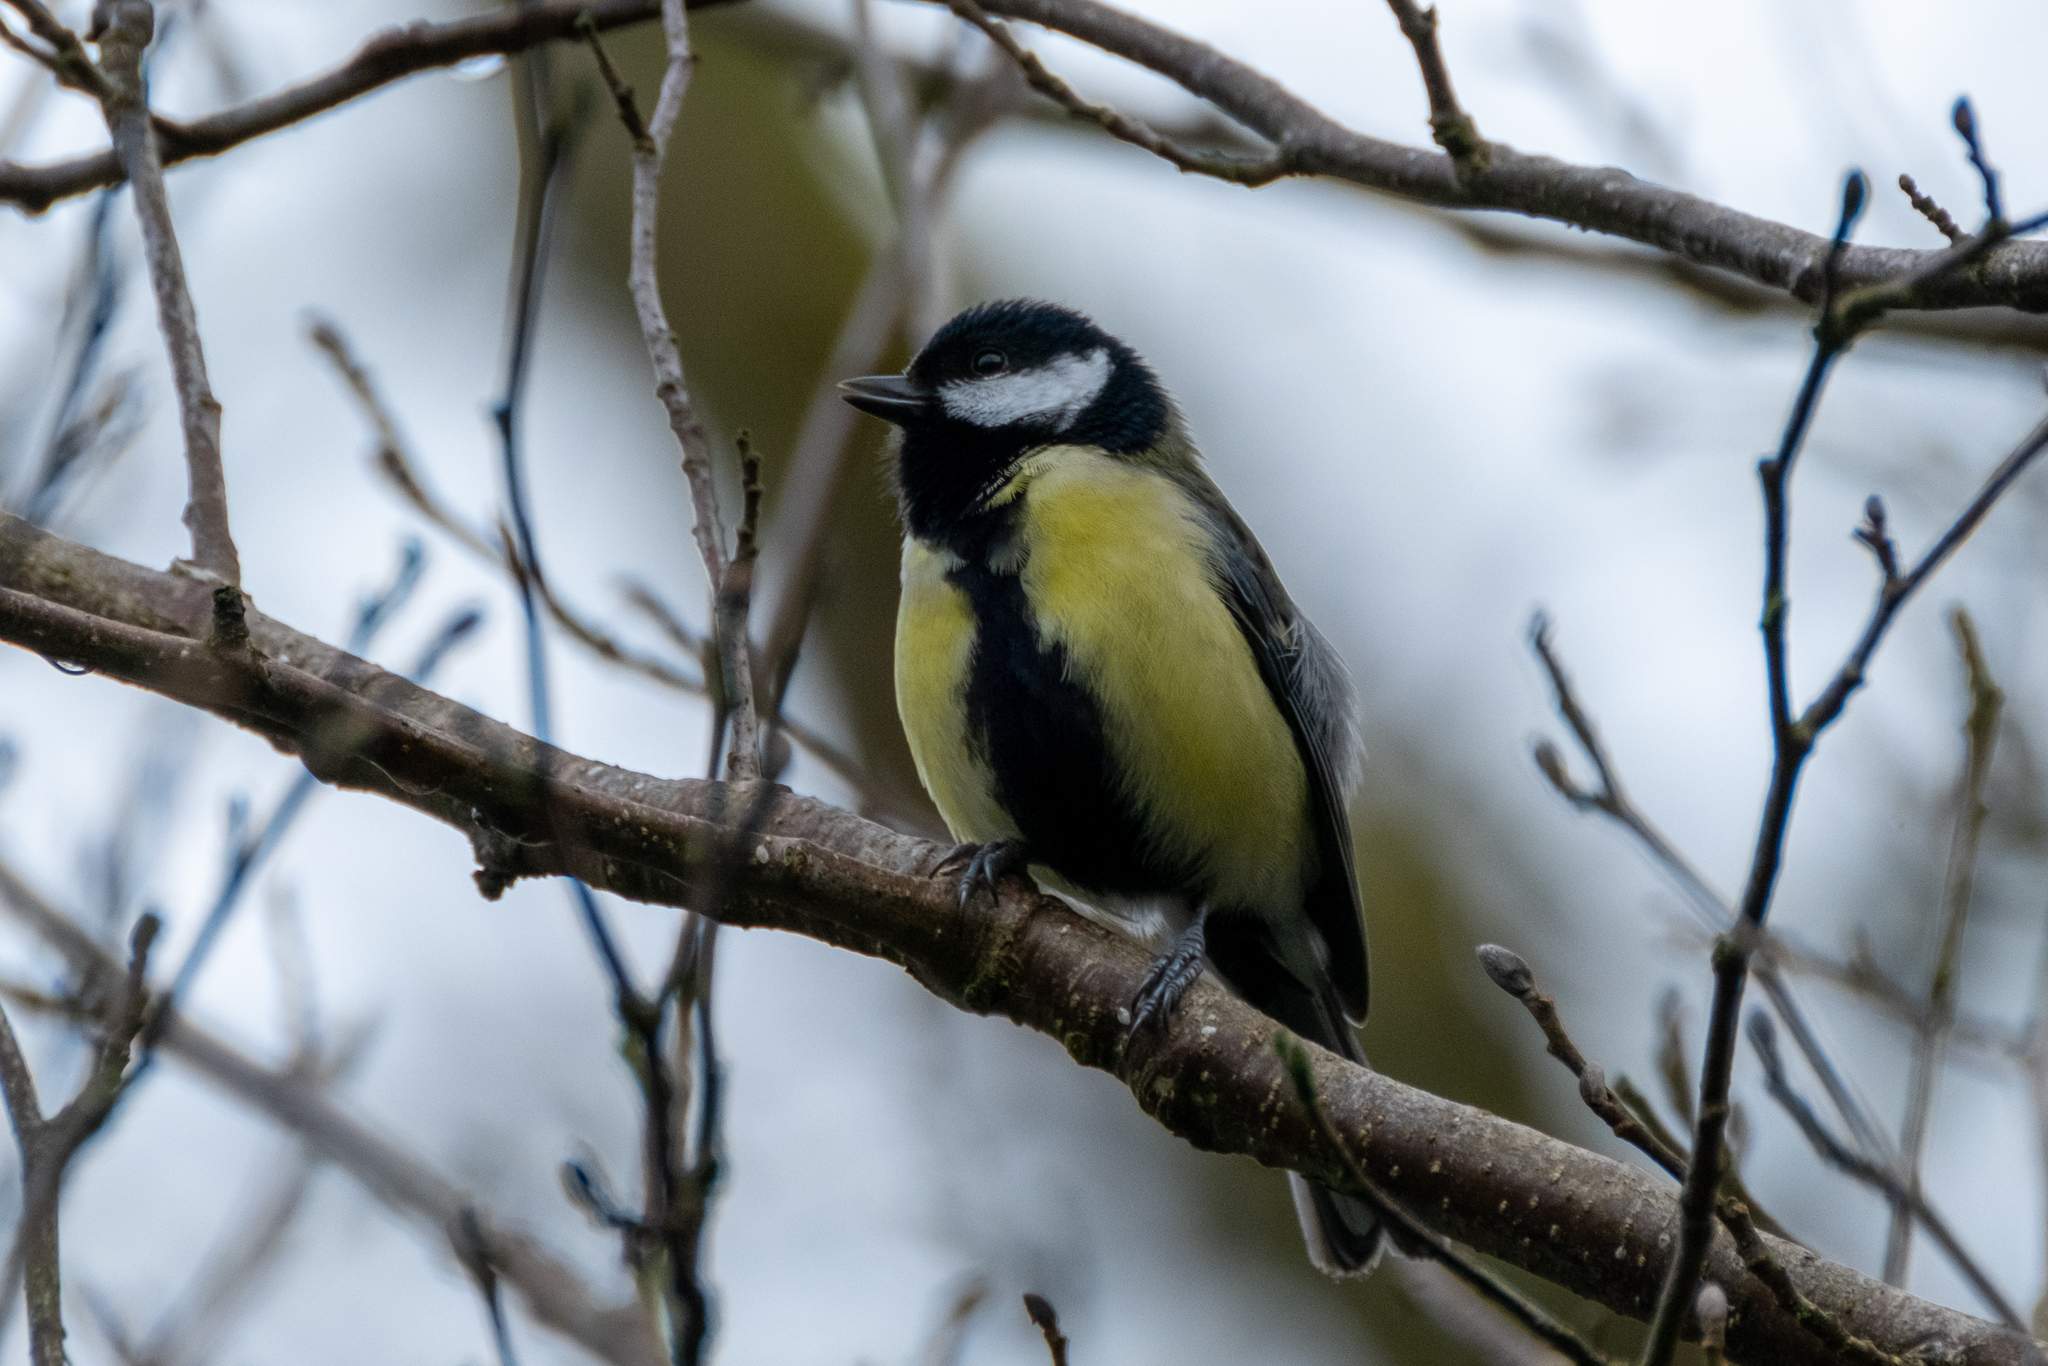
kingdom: Animalia
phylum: Chordata
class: Aves
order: Passeriformes
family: Paridae
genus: Parus
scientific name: Parus major
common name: Great tit
